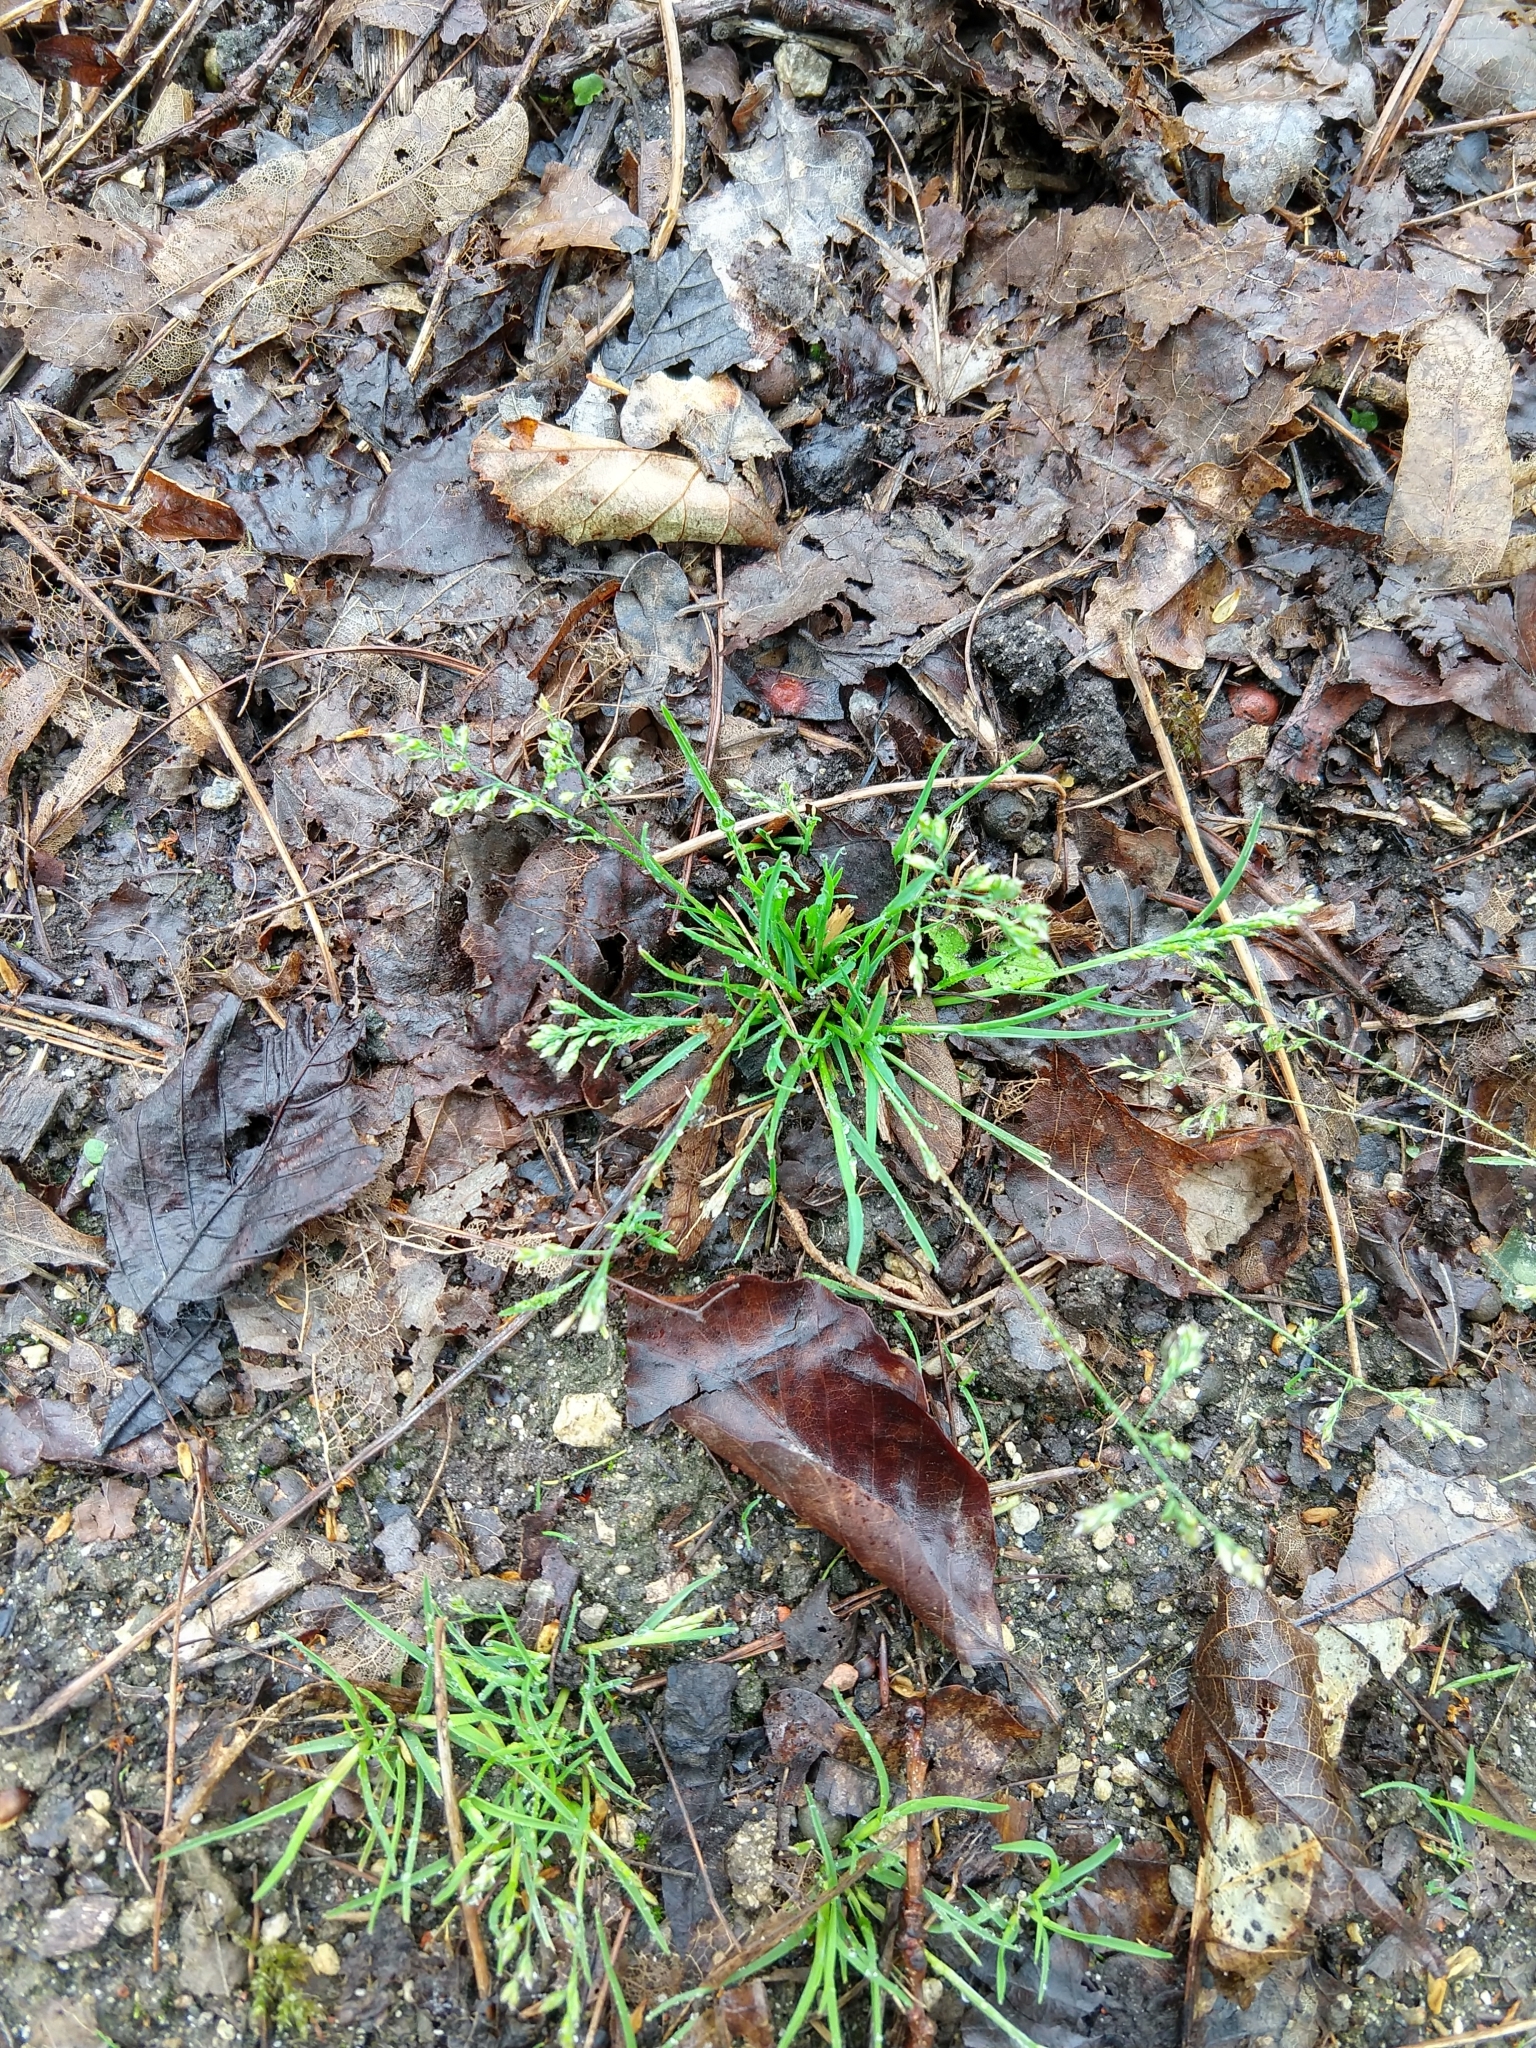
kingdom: Plantae
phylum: Tracheophyta
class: Liliopsida
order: Poales
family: Poaceae
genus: Poa
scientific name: Poa annua
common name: Annual bluegrass
